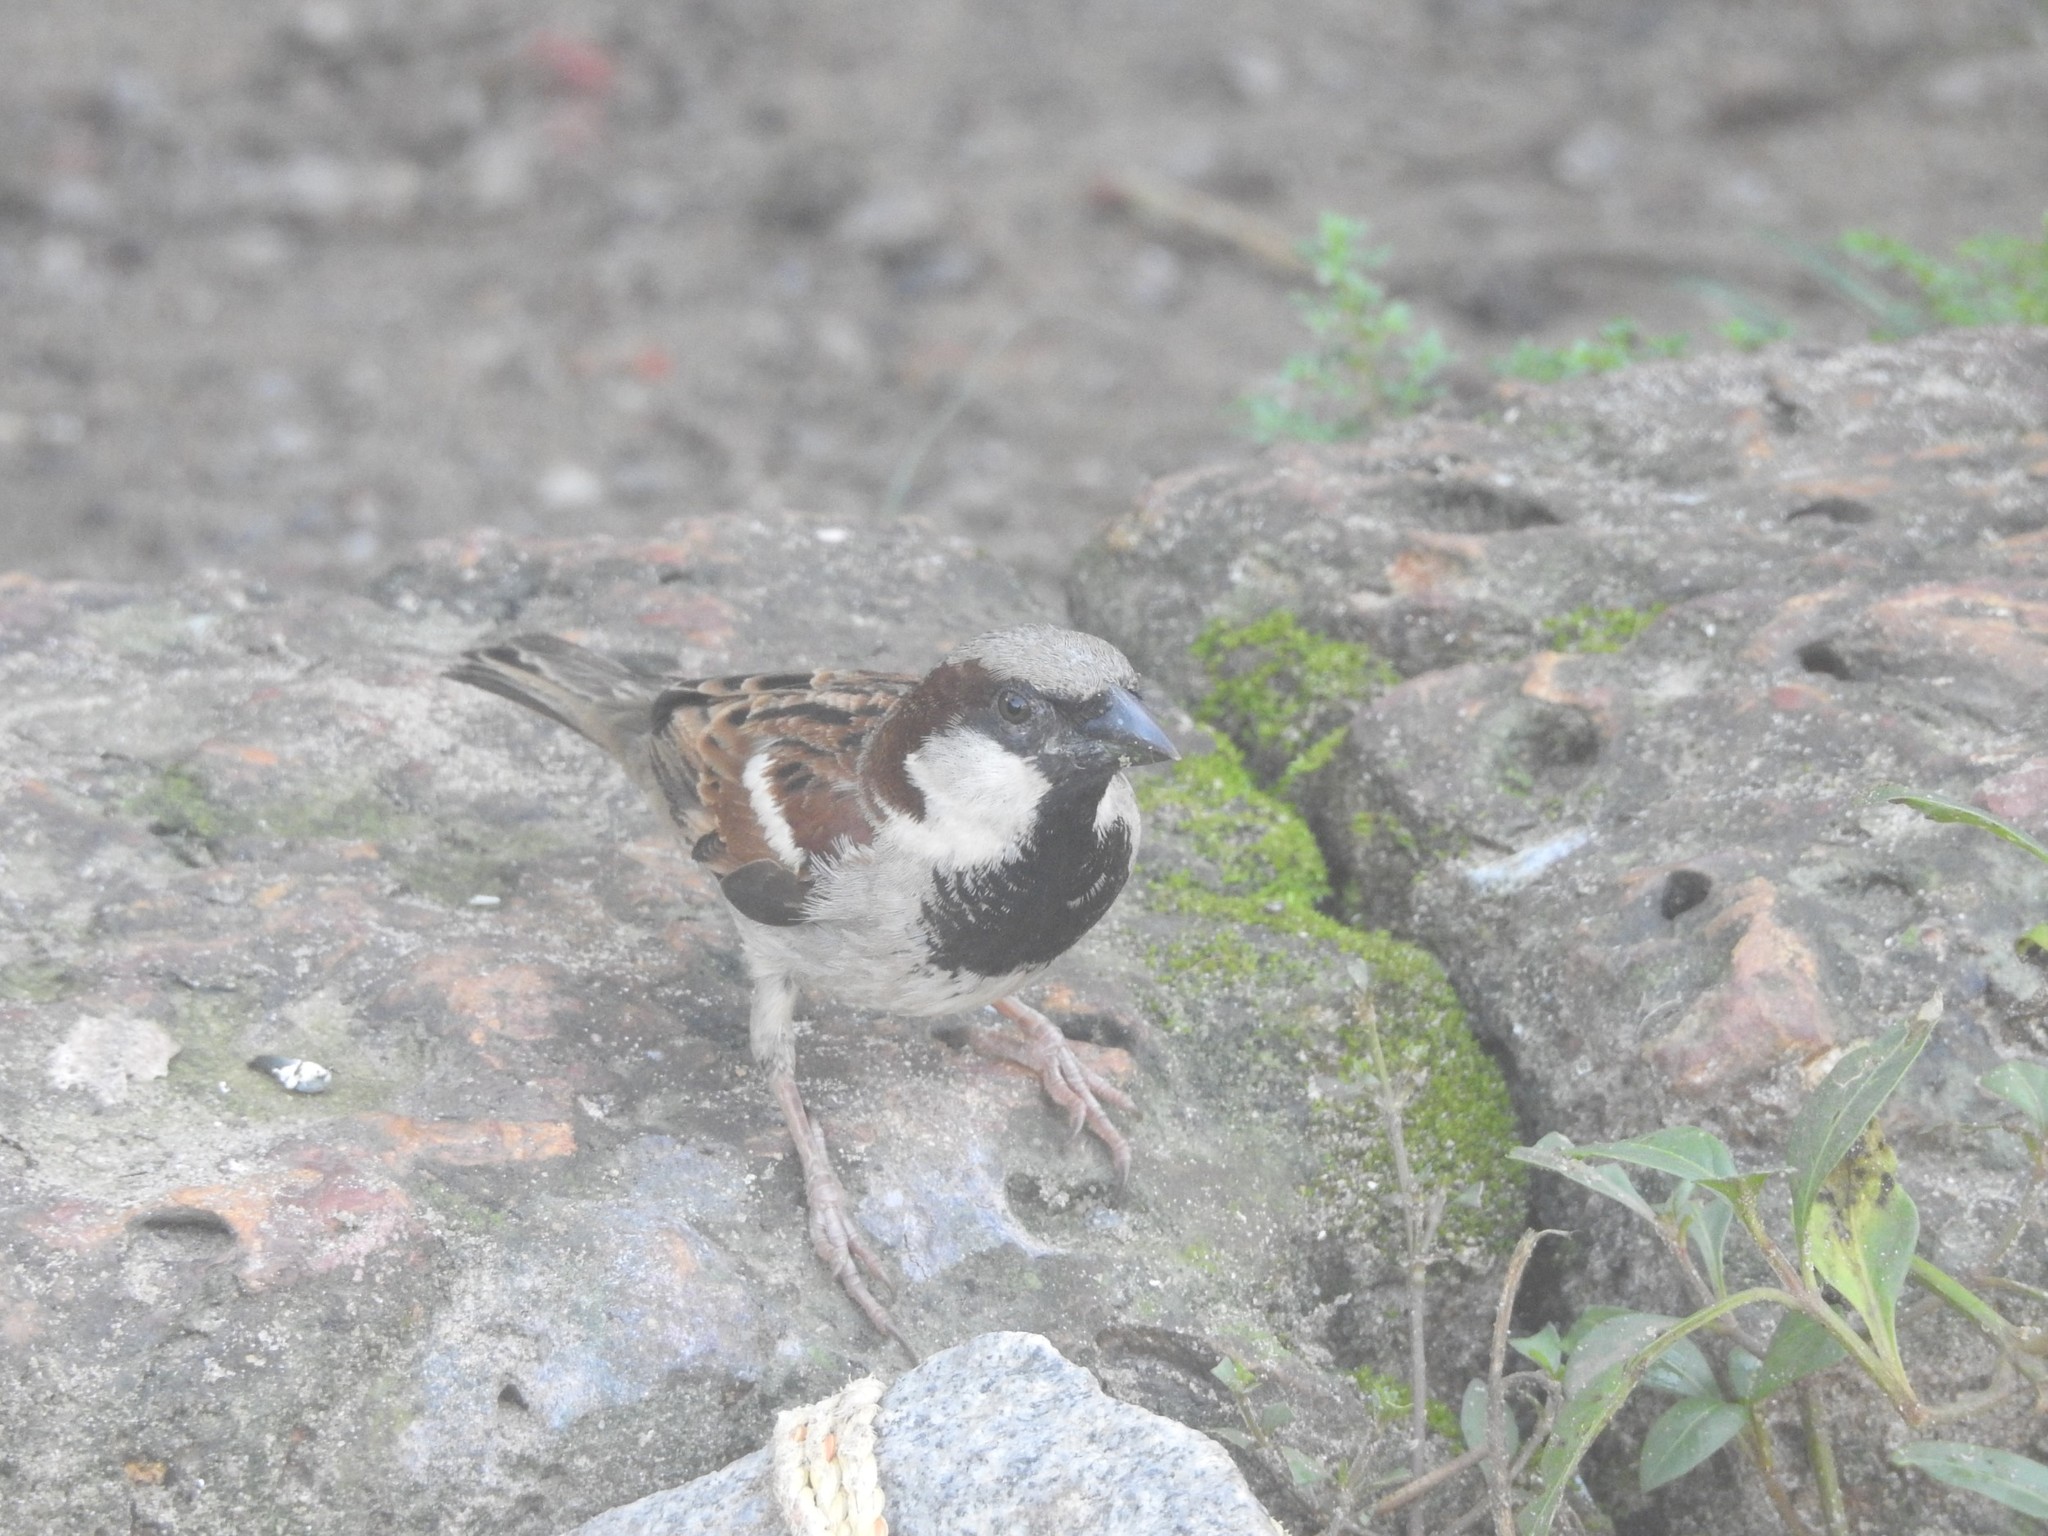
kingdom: Animalia
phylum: Chordata
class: Aves
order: Passeriformes
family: Passeridae
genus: Passer
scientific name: Passer domesticus
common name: House sparrow
